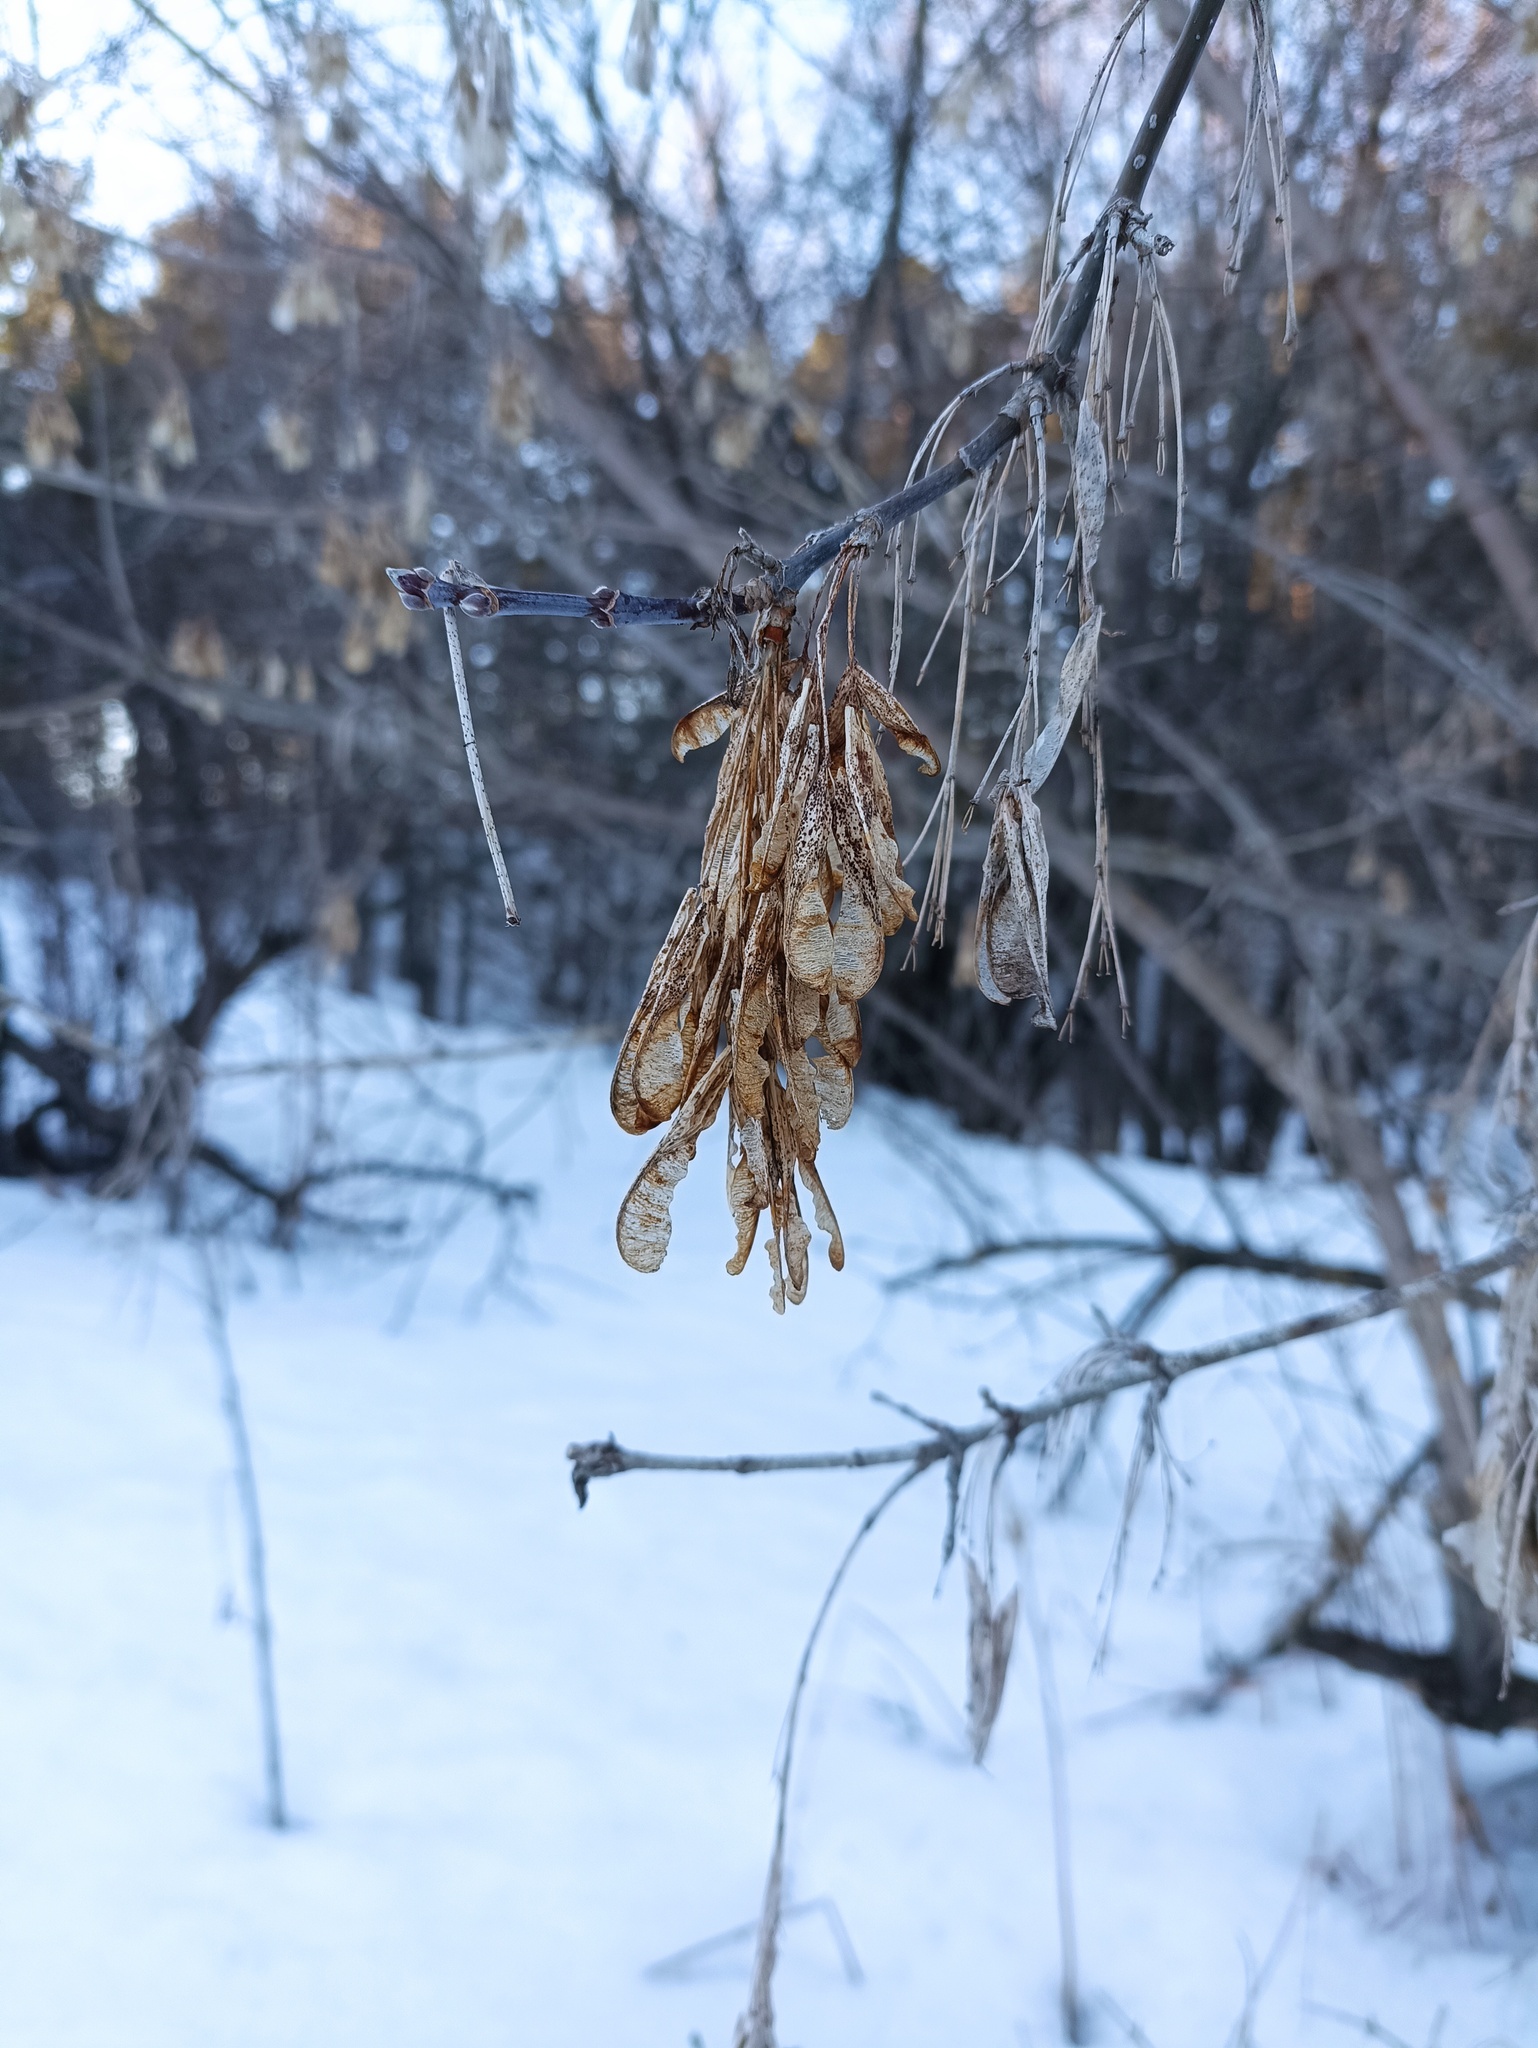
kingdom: Plantae
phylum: Tracheophyta
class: Magnoliopsida
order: Sapindales
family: Sapindaceae
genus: Acer
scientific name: Acer negundo
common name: Ashleaf maple
